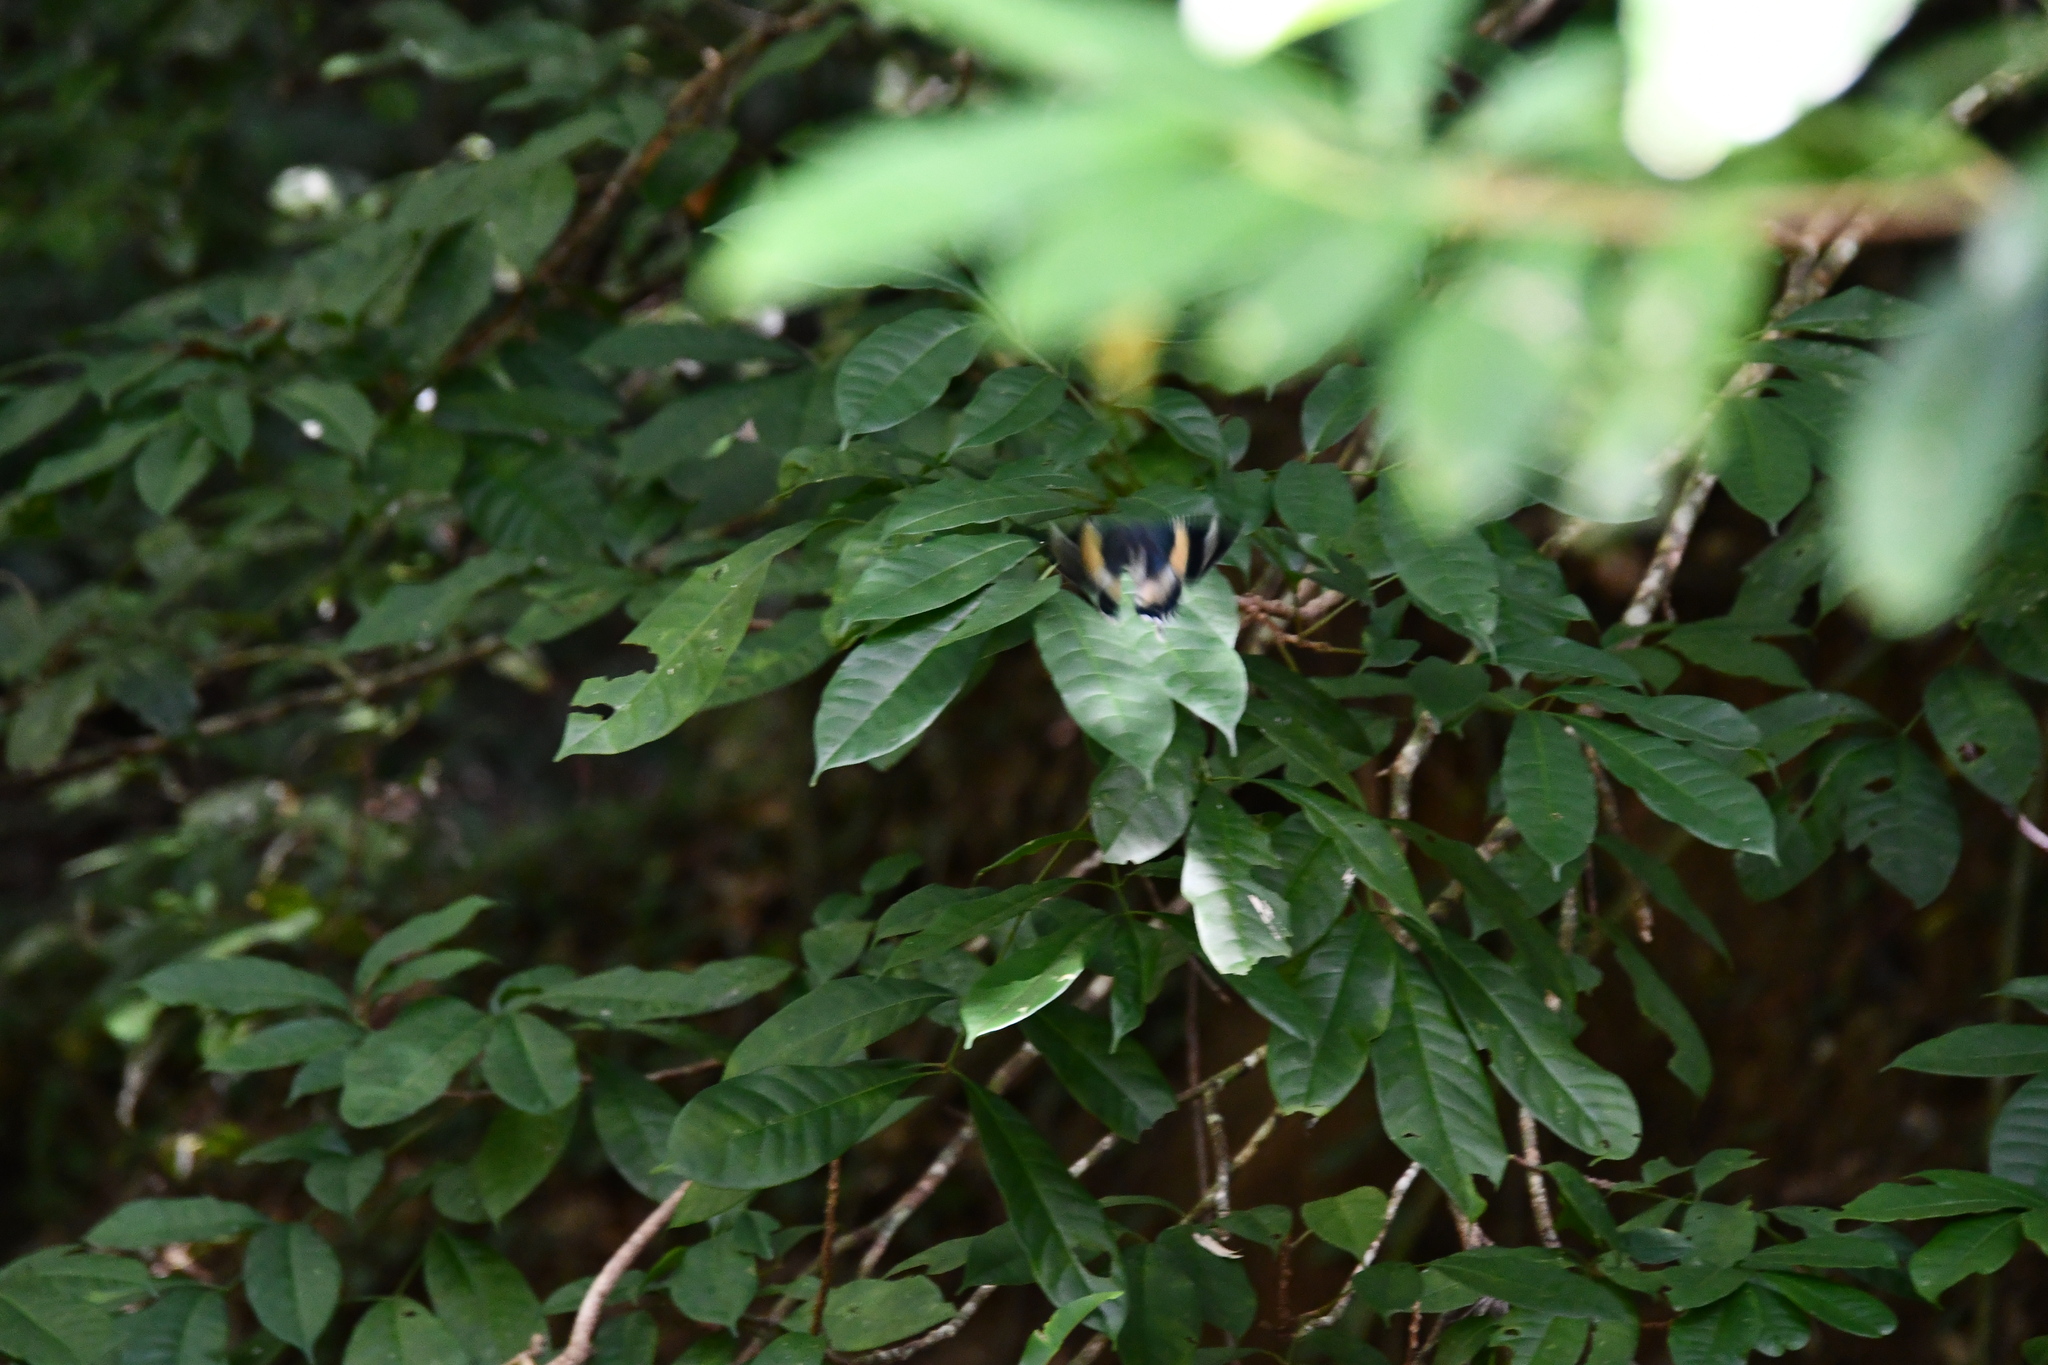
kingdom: Animalia
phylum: Arthropoda
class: Insecta
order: Lepidoptera
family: Uraniidae
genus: Alcides
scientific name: Alcides metaurus
